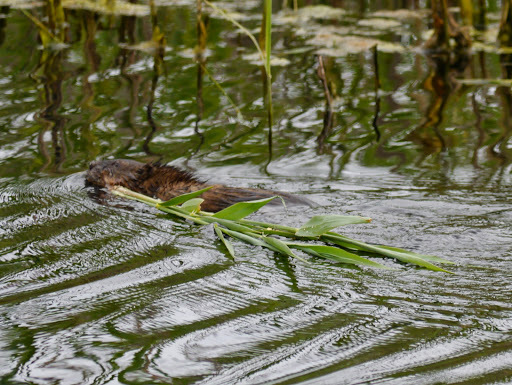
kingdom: Animalia
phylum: Chordata
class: Mammalia
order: Rodentia
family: Cricetidae
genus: Ondatra
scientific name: Ondatra zibethicus
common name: Muskrat
